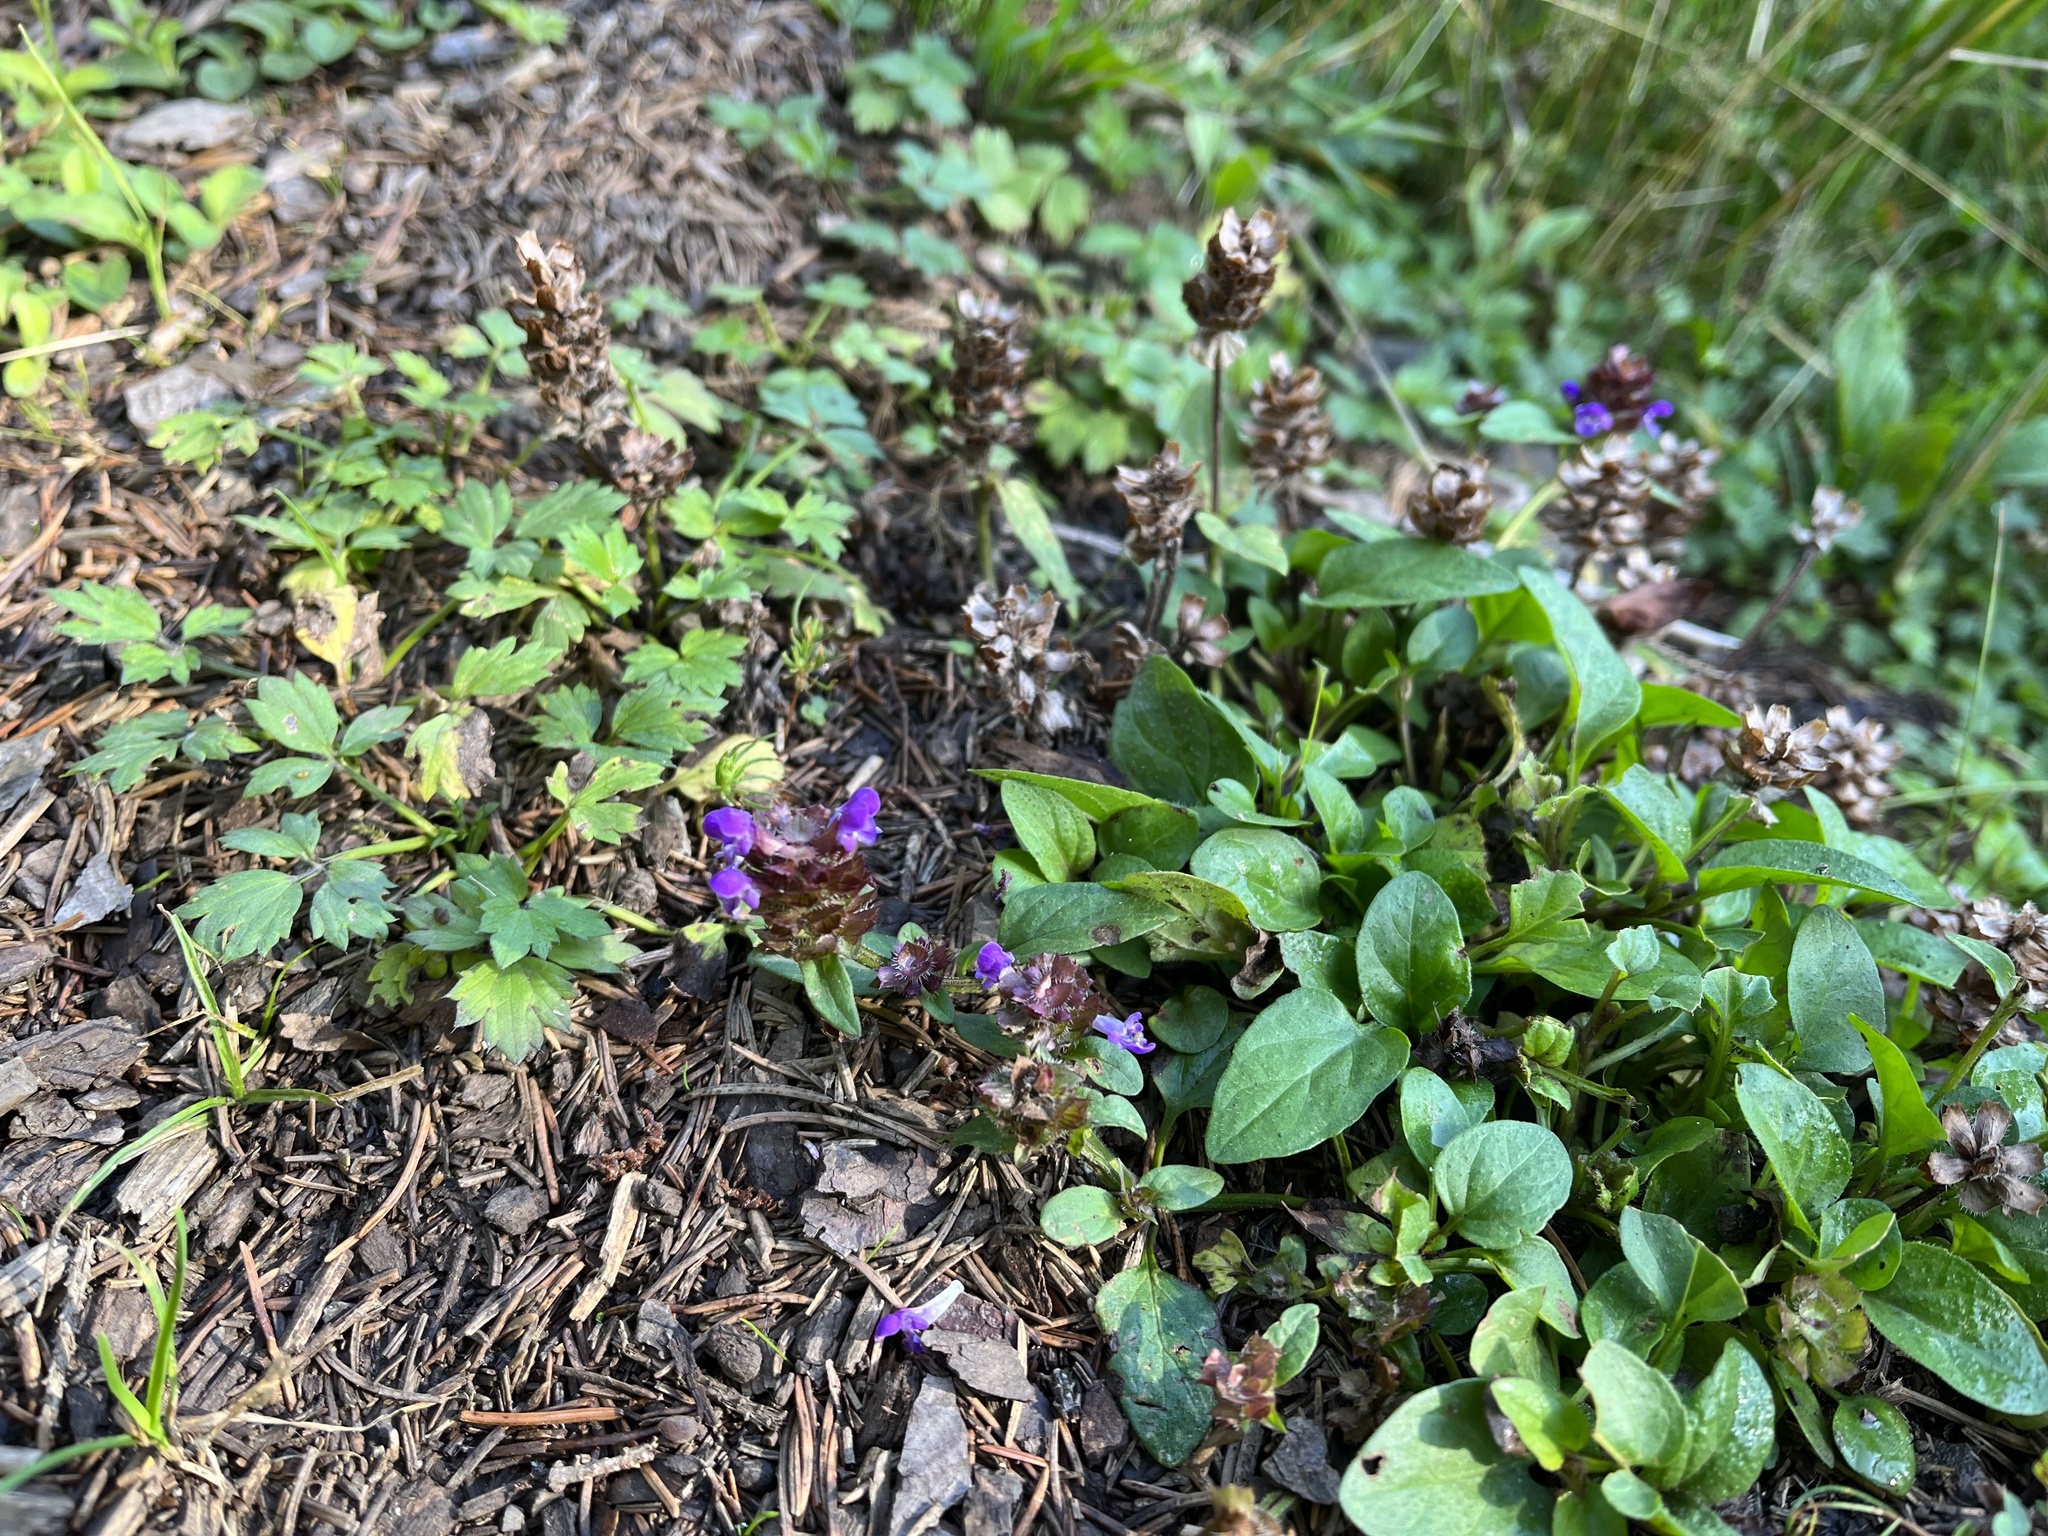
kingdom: Plantae
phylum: Tracheophyta
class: Magnoliopsida
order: Lamiales
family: Lamiaceae
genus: Prunella
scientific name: Prunella vulgaris
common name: Heal-all
